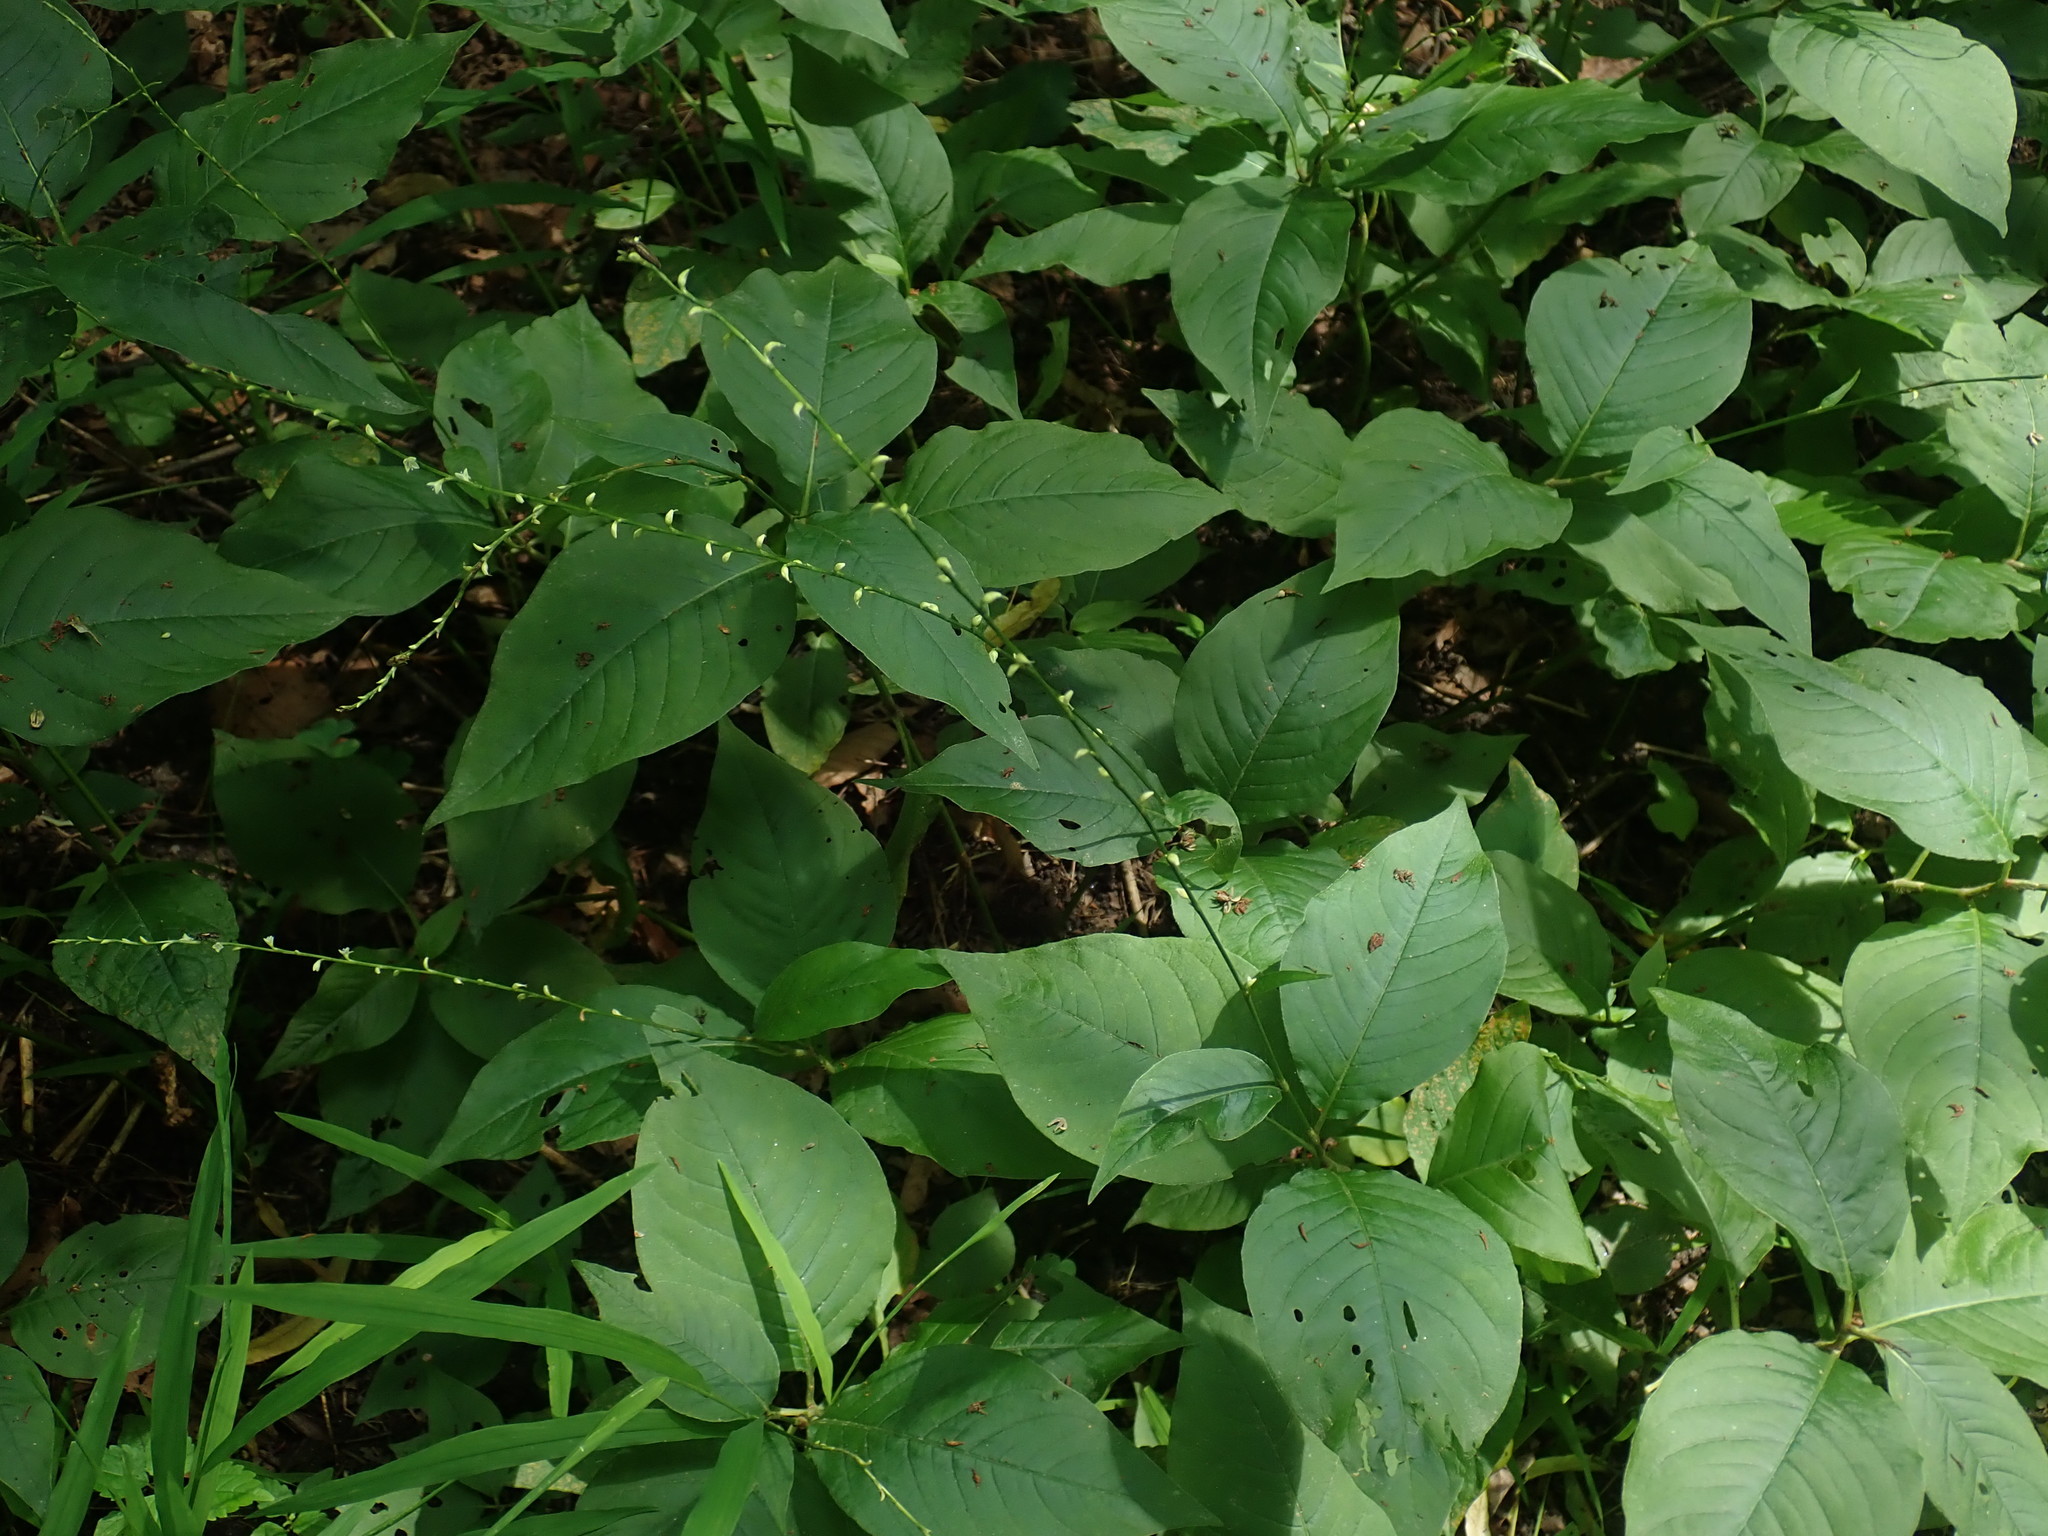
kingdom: Plantae
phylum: Tracheophyta
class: Magnoliopsida
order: Caryophyllales
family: Polygonaceae
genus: Persicaria
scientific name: Persicaria virginiana
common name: Jumpseed
